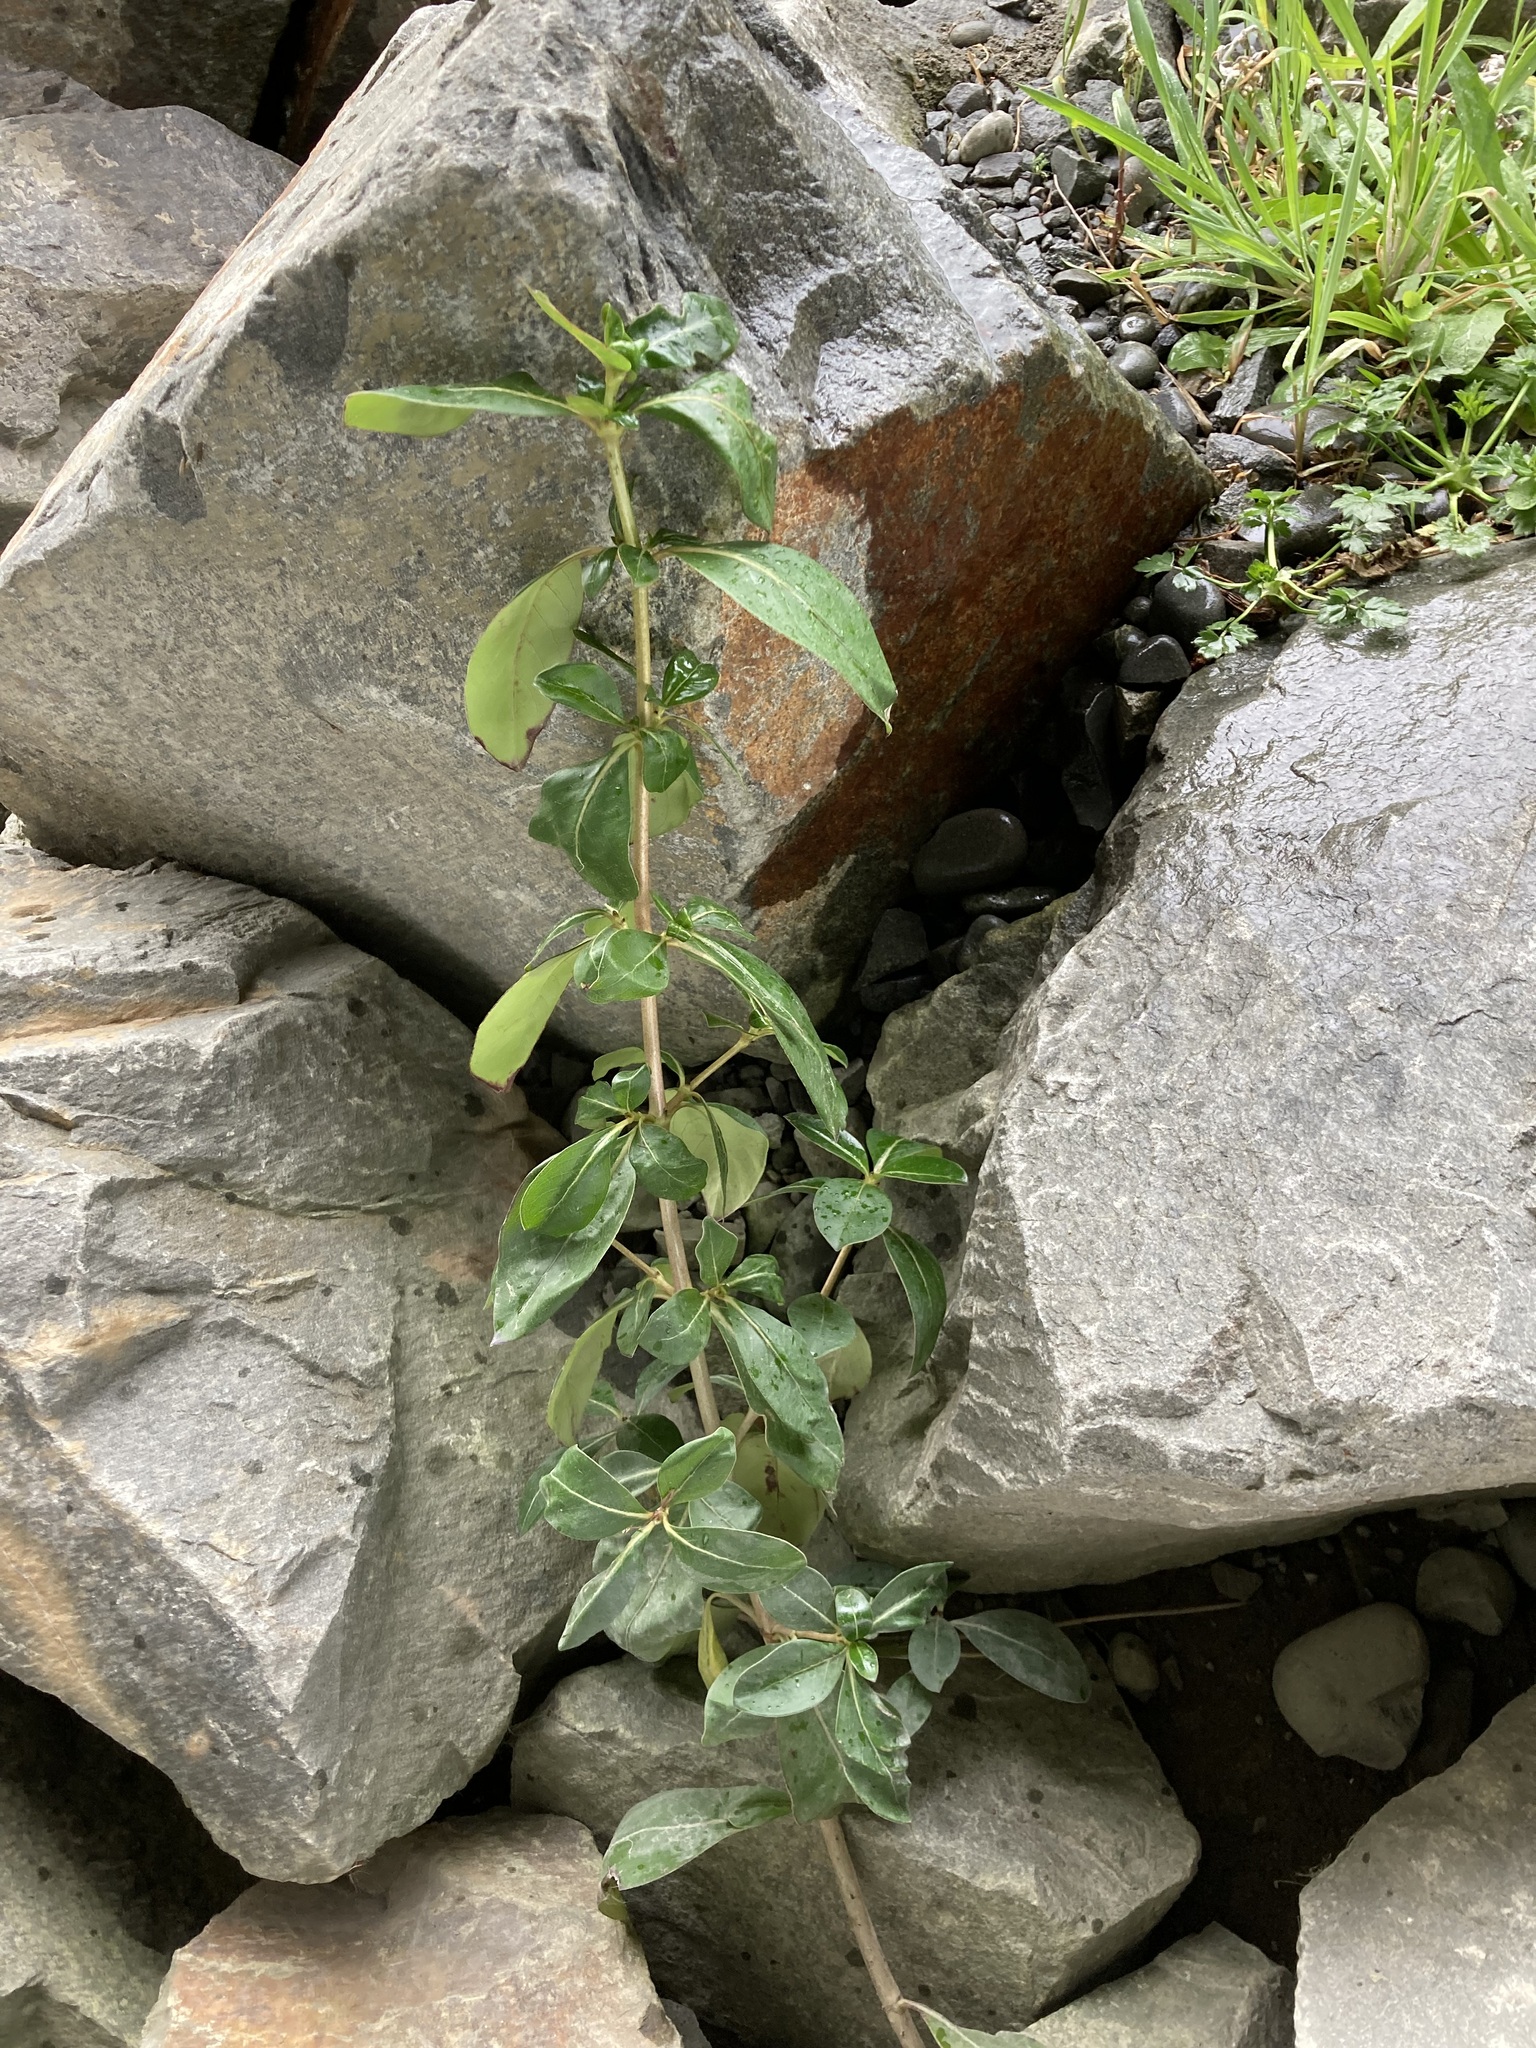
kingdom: Plantae
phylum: Tracheophyta
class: Magnoliopsida
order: Gentianales
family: Rubiaceae
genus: Coprosma
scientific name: Coprosma robusta
